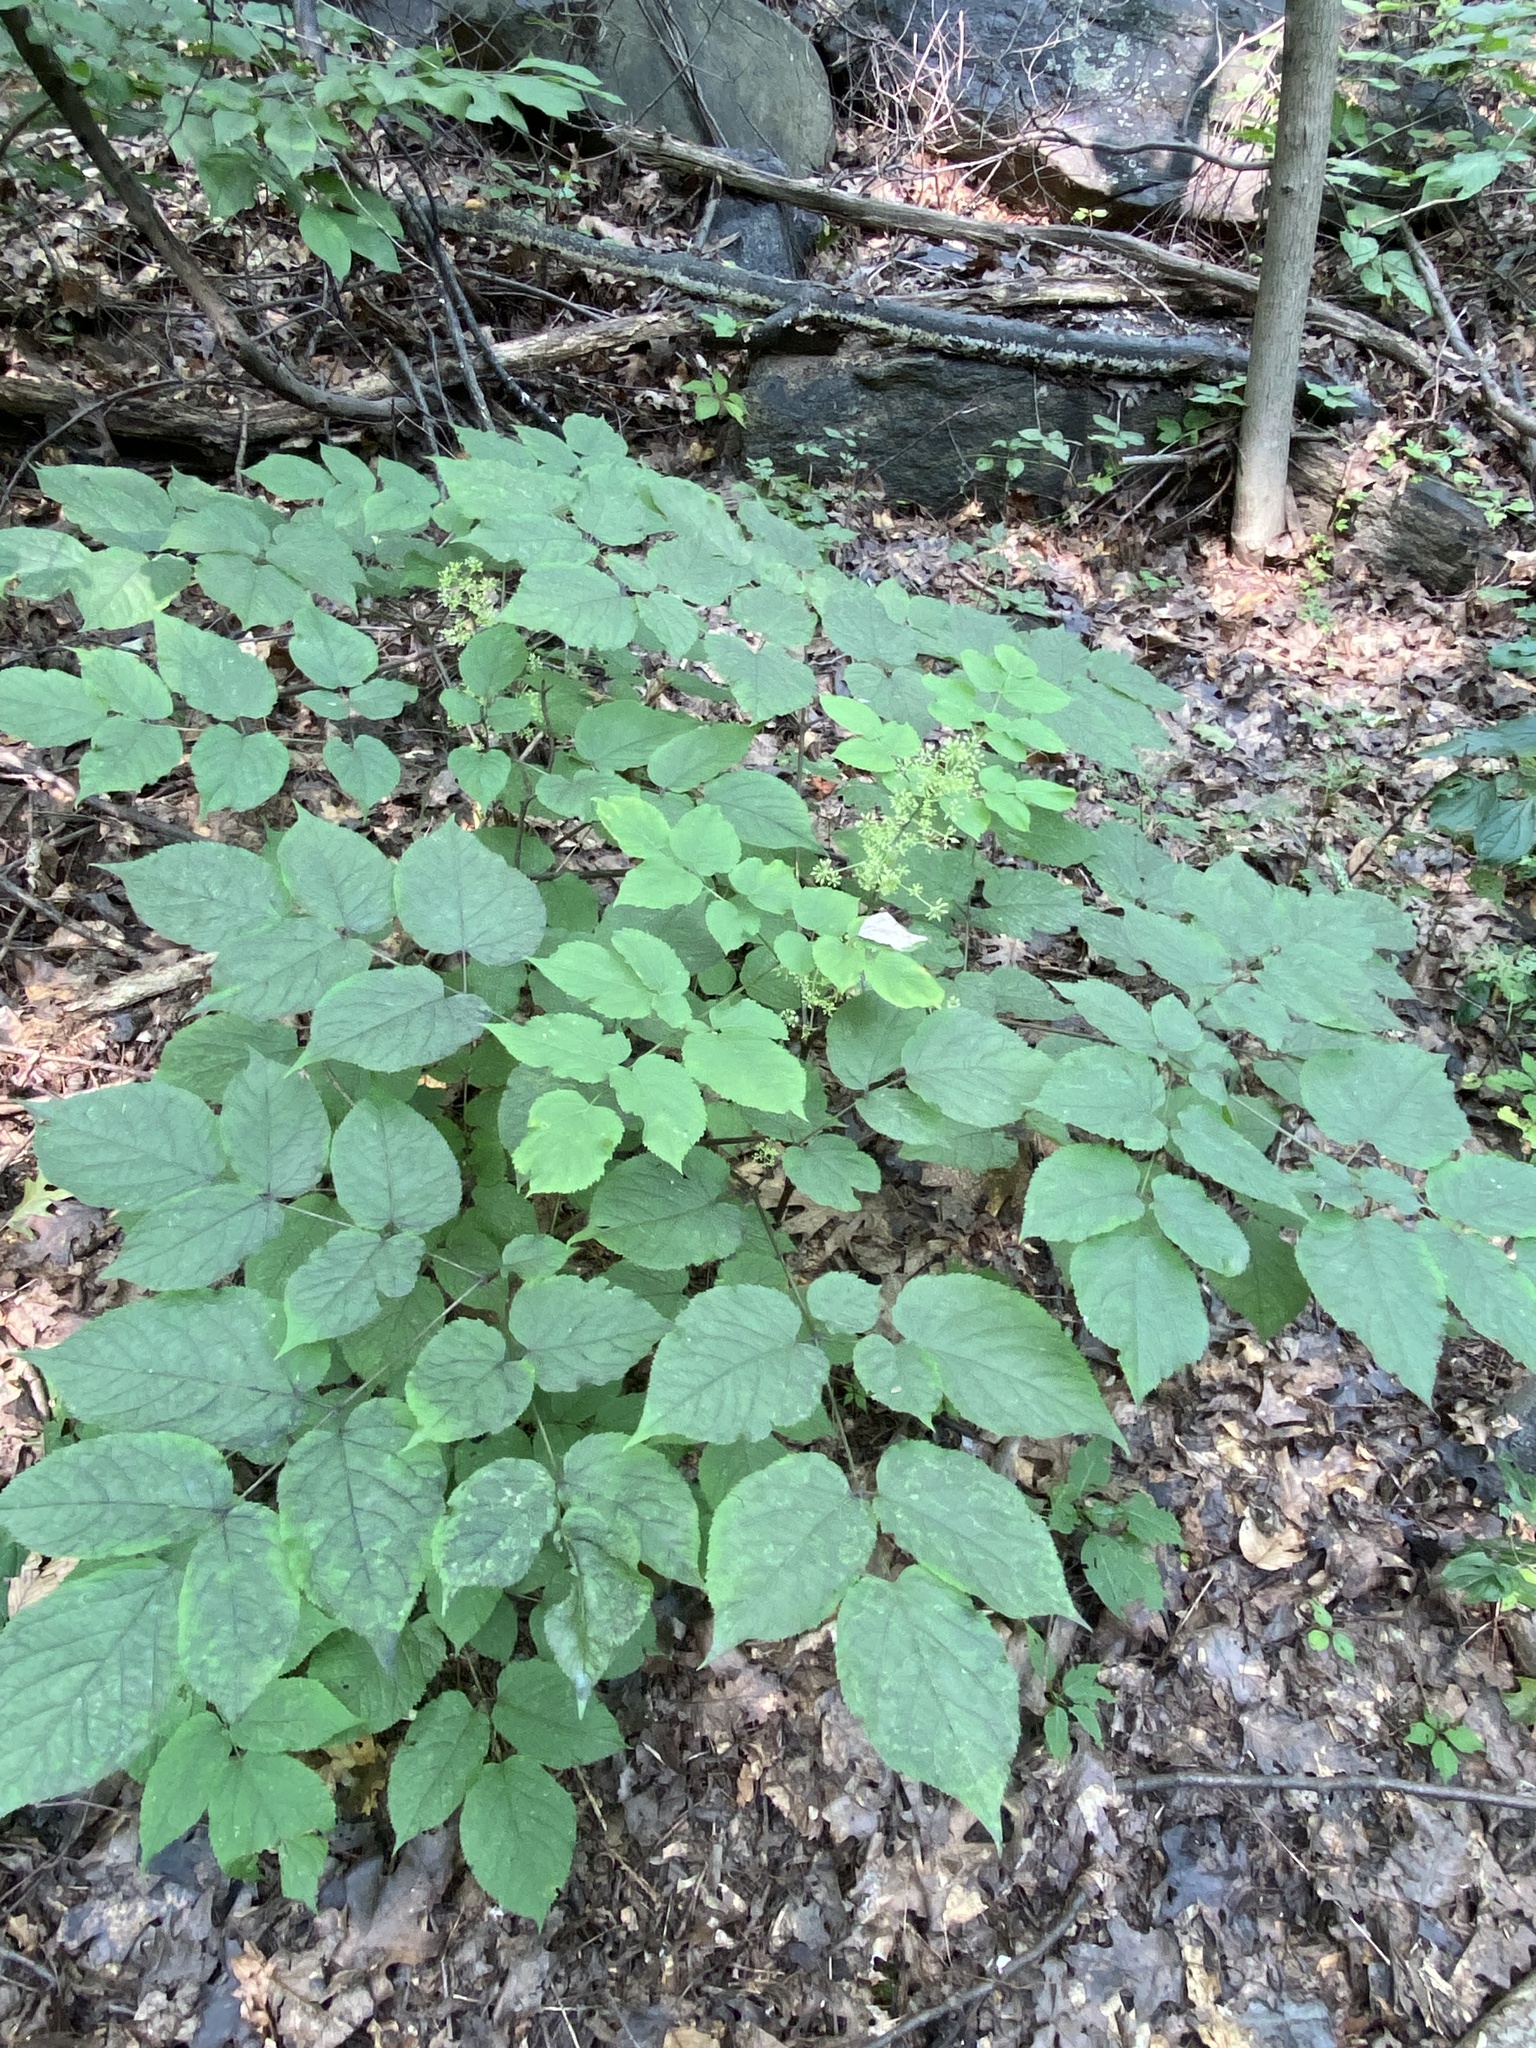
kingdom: Plantae
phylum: Tracheophyta
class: Magnoliopsida
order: Apiales
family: Araliaceae
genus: Aralia
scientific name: Aralia racemosa
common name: American-spikenard
